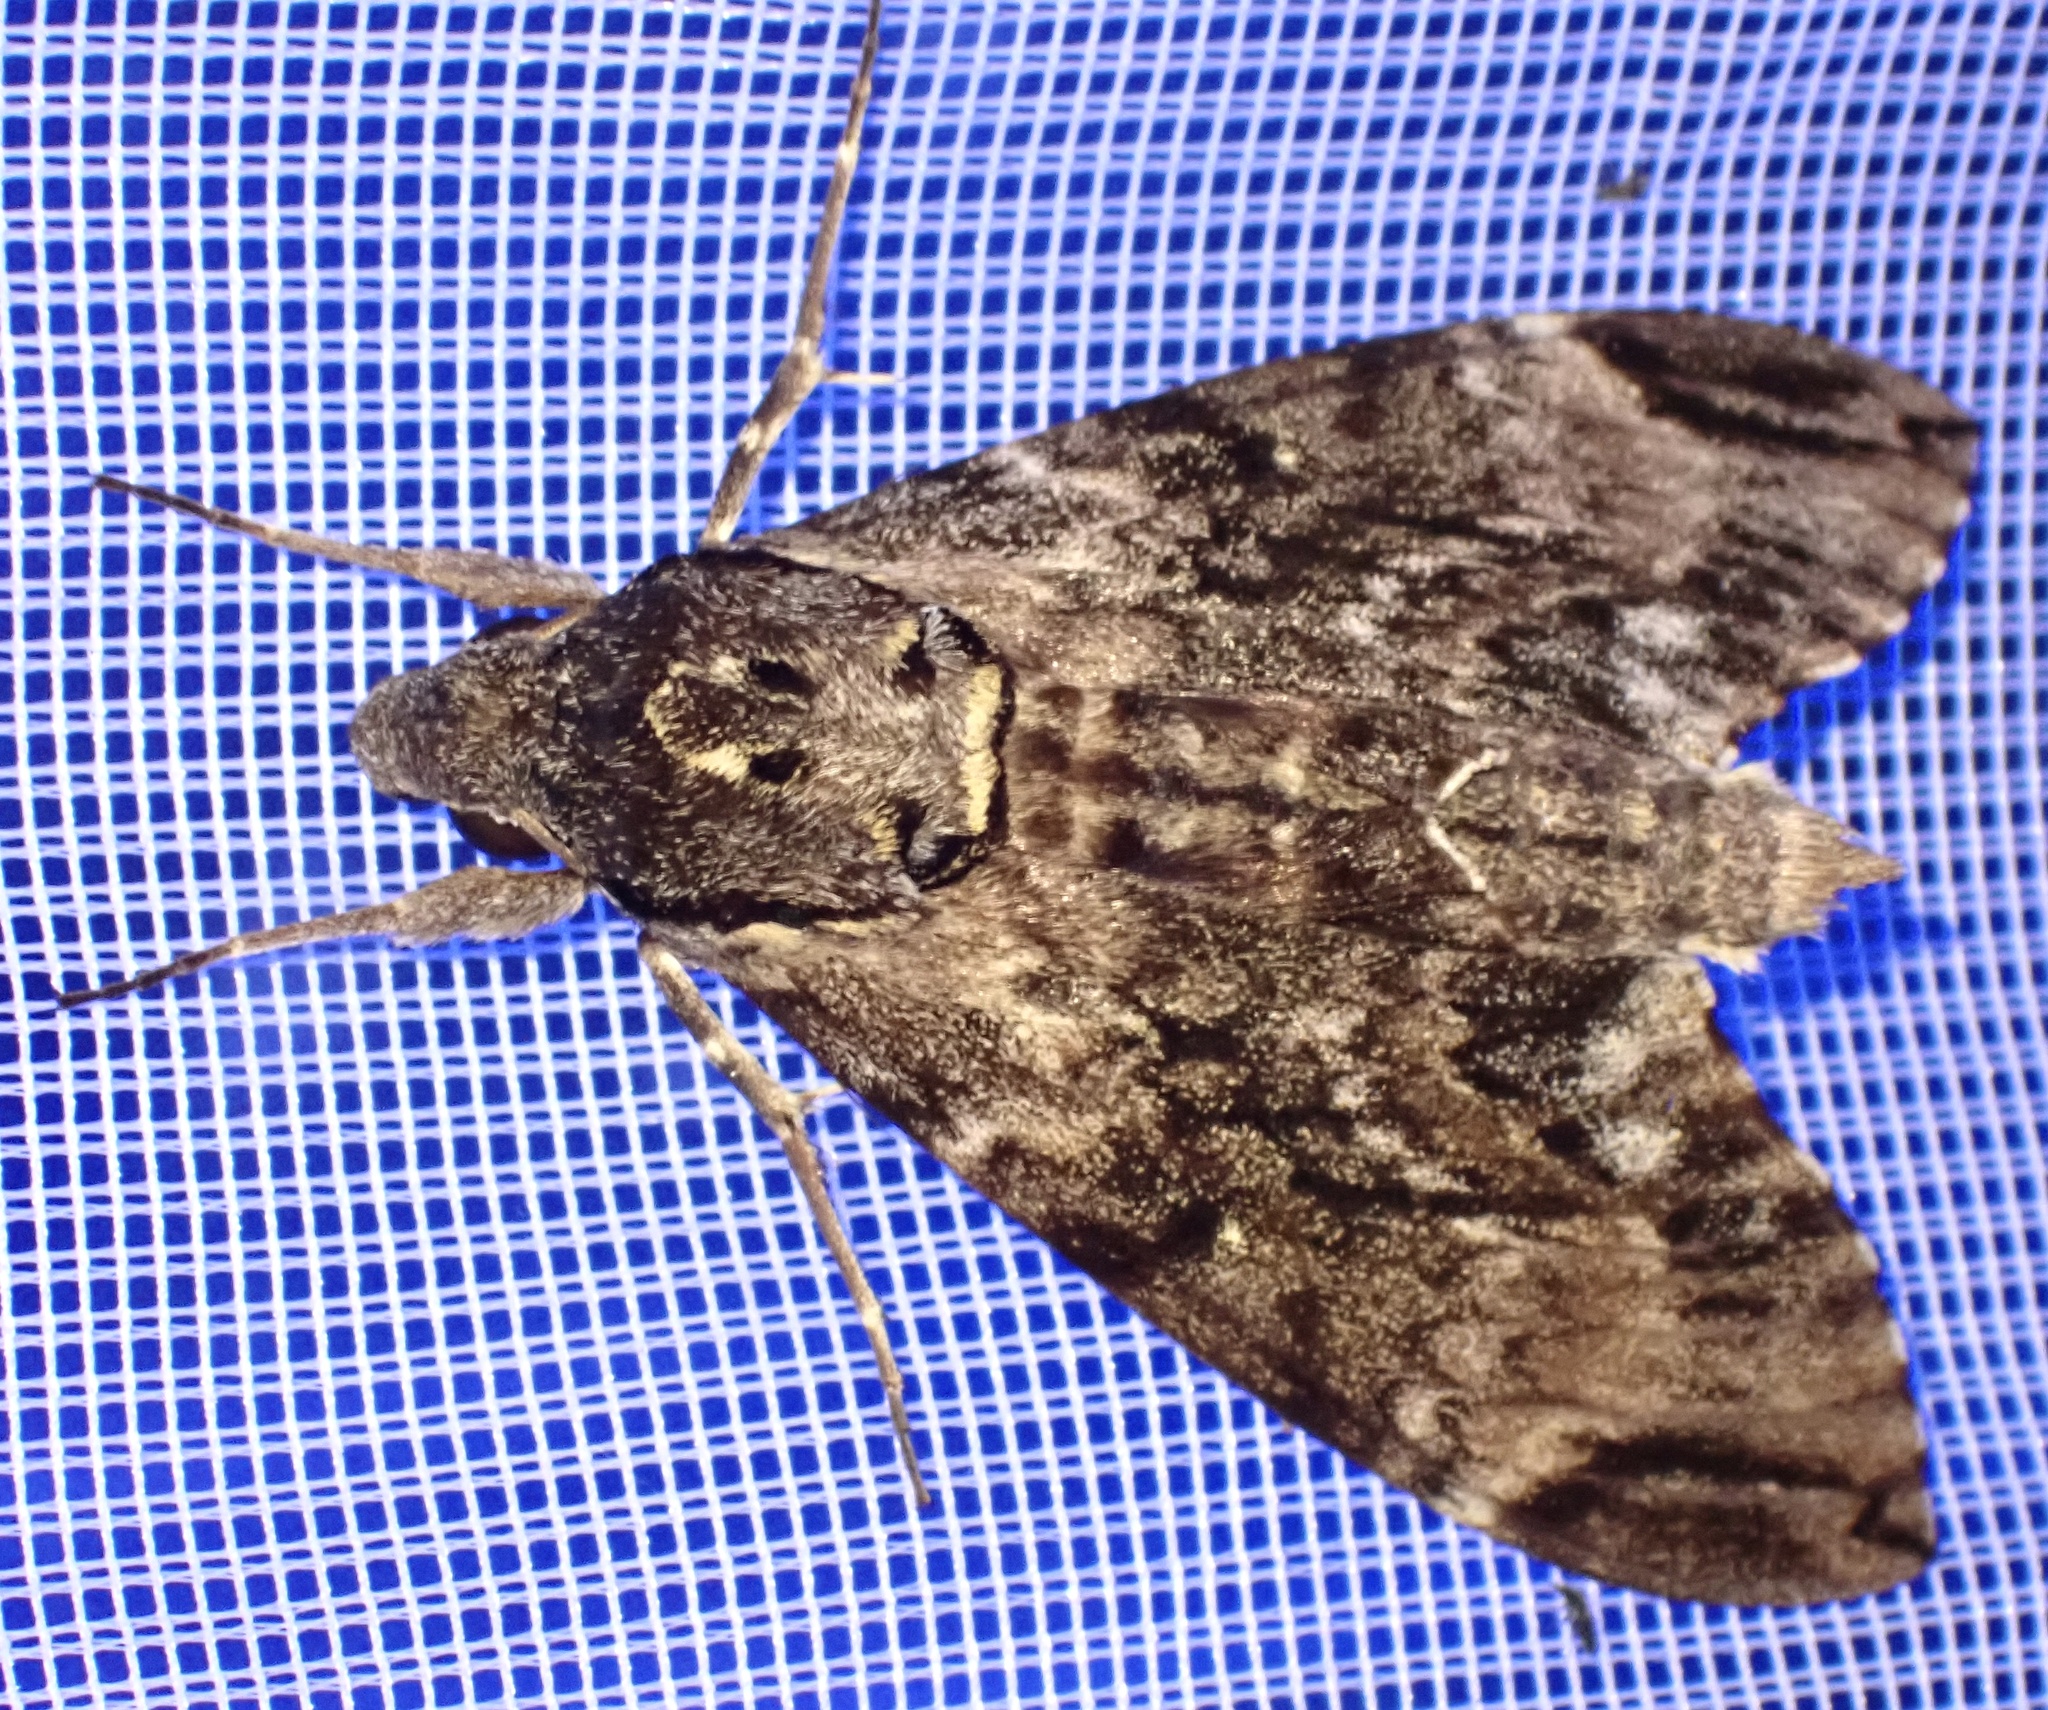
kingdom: Animalia
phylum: Arthropoda
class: Insecta
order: Lepidoptera
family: Sphingidae
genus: Psilogramma
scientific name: Psilogramma menephron
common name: Gray hawk moth
